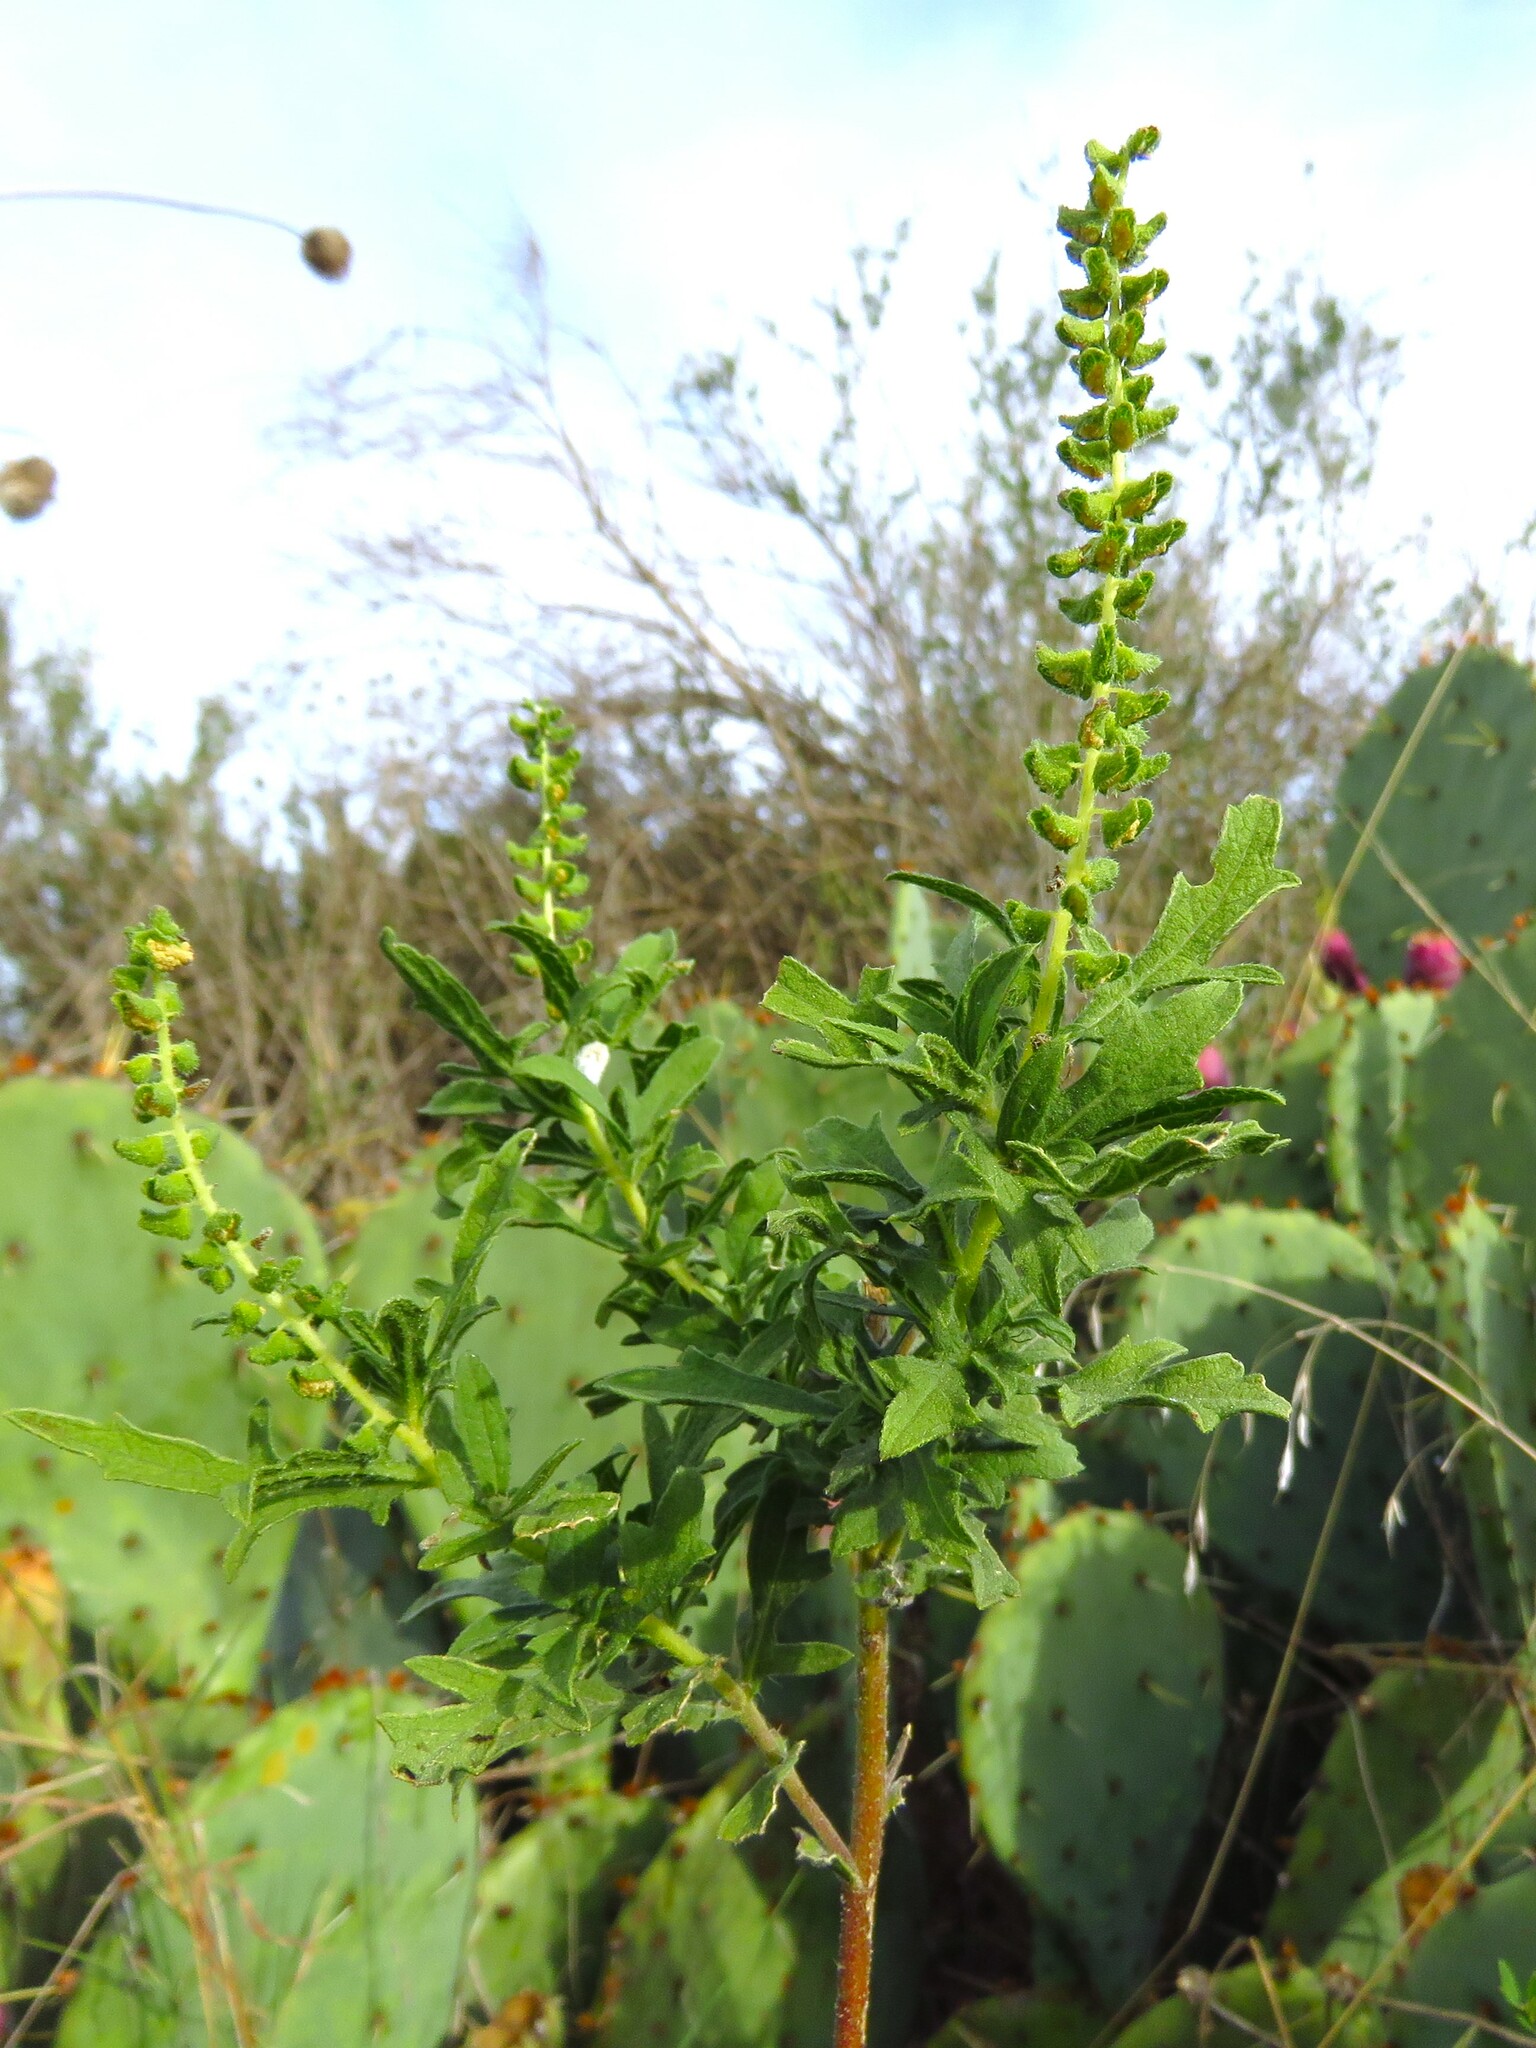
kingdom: Plantae
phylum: Tracheophyta
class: Magnoliopsida
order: Asterales
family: Asteraceae
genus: Ambrosia
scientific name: Ambrosia psilostachya
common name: Perennial ragweed
